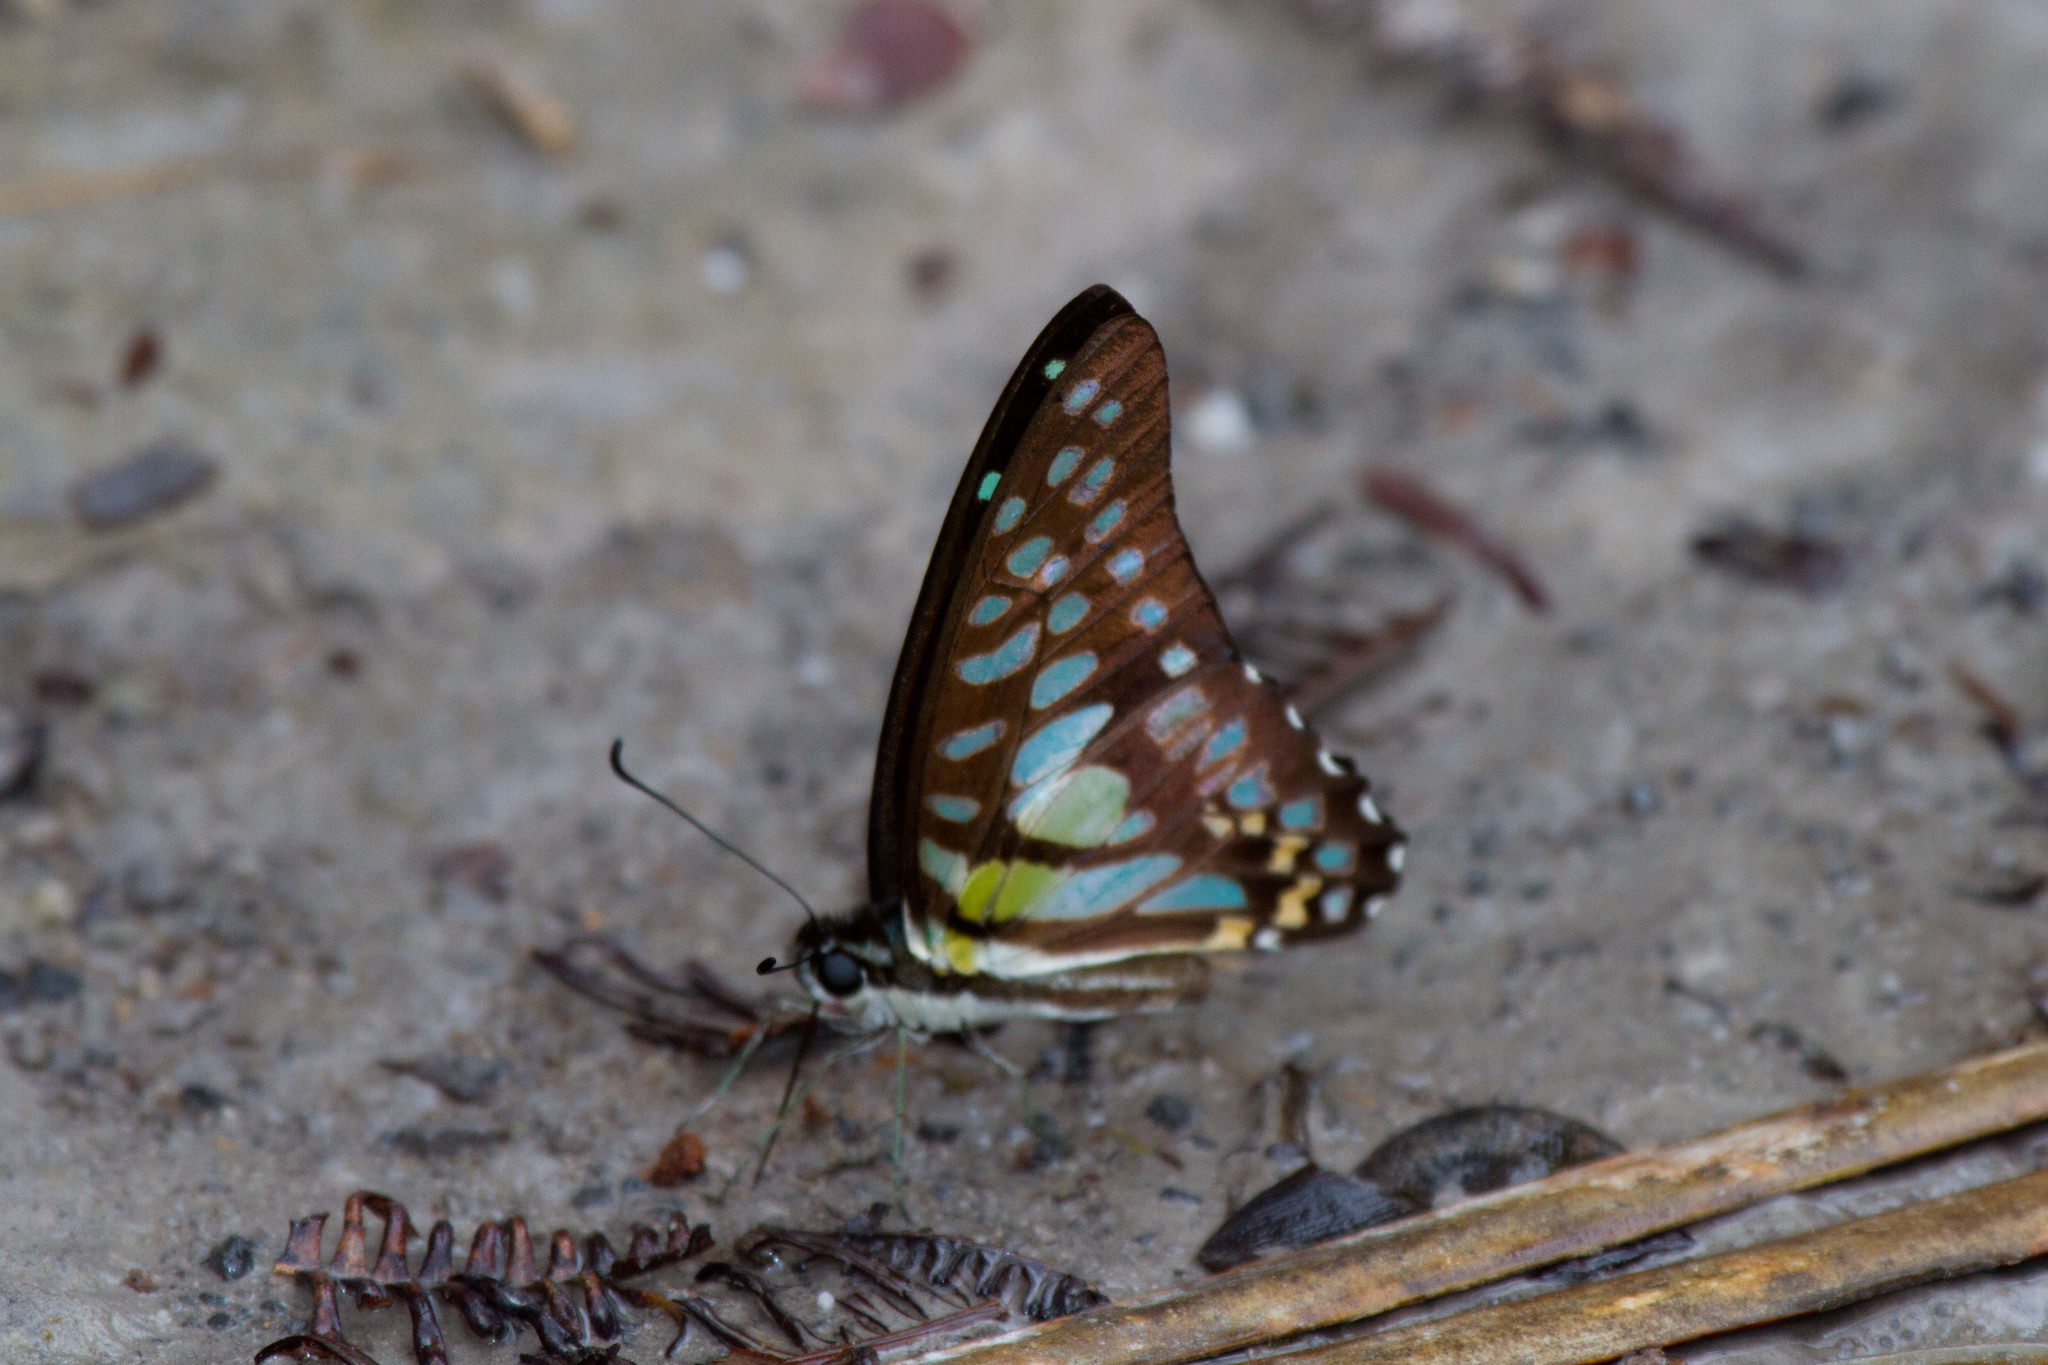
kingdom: Animalia
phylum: Arthropoda
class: Insecta
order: Lepidoptera
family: Papilionidae
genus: Graphium
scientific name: Graphium bathycles
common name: Veined jay
